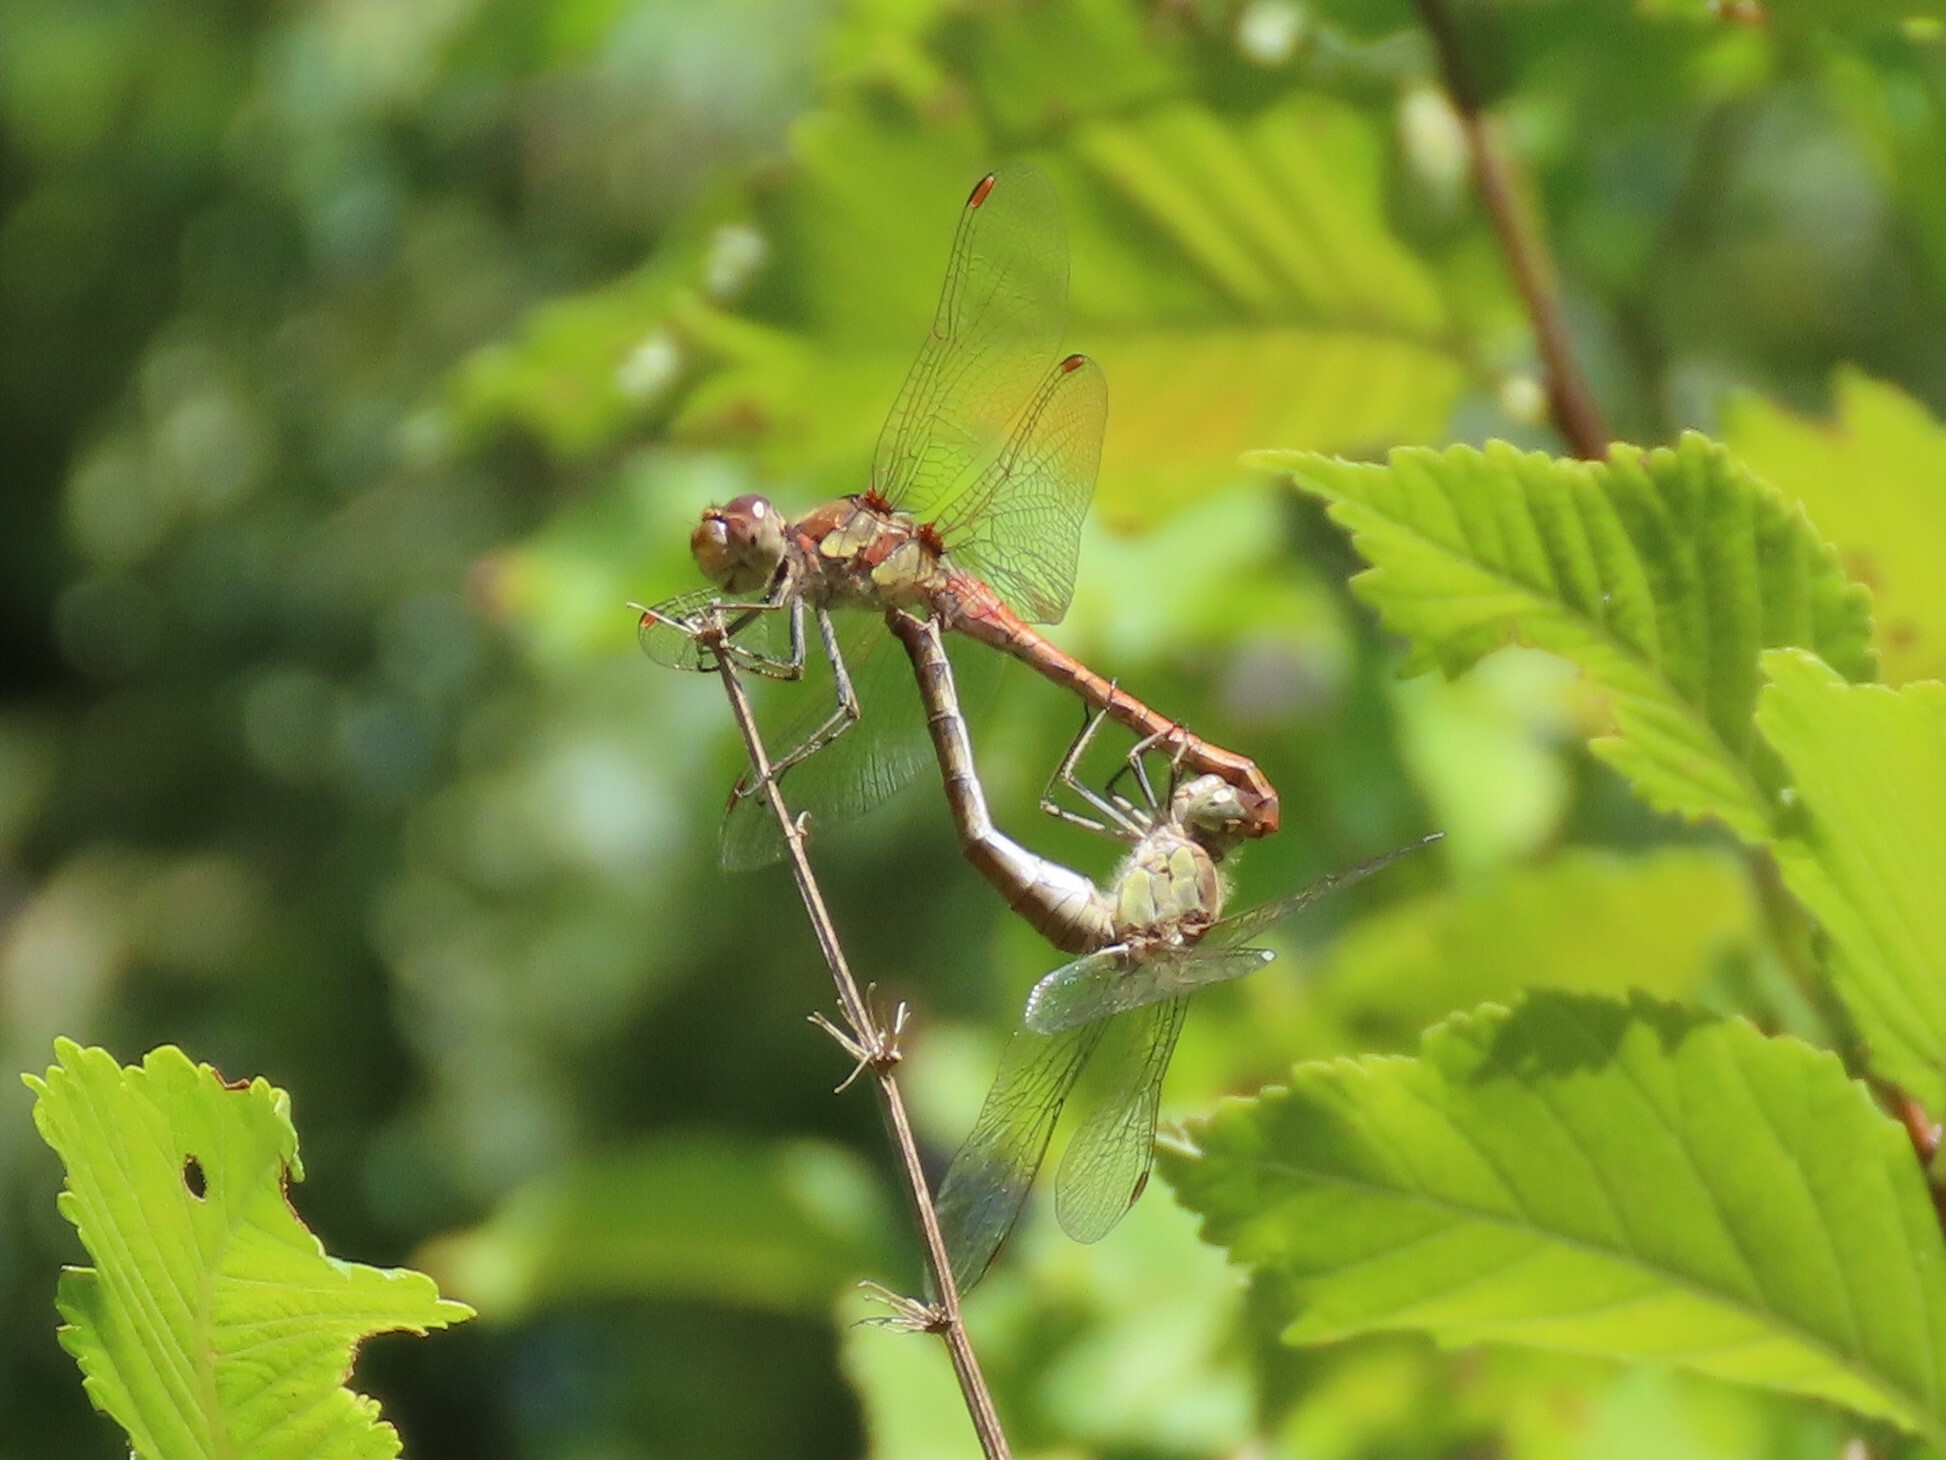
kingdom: Animalia
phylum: Arthropoda
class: Insecta
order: Odonata
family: Libellulidae
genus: Sympetrum
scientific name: Sympetrum striolatum
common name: Common darter
